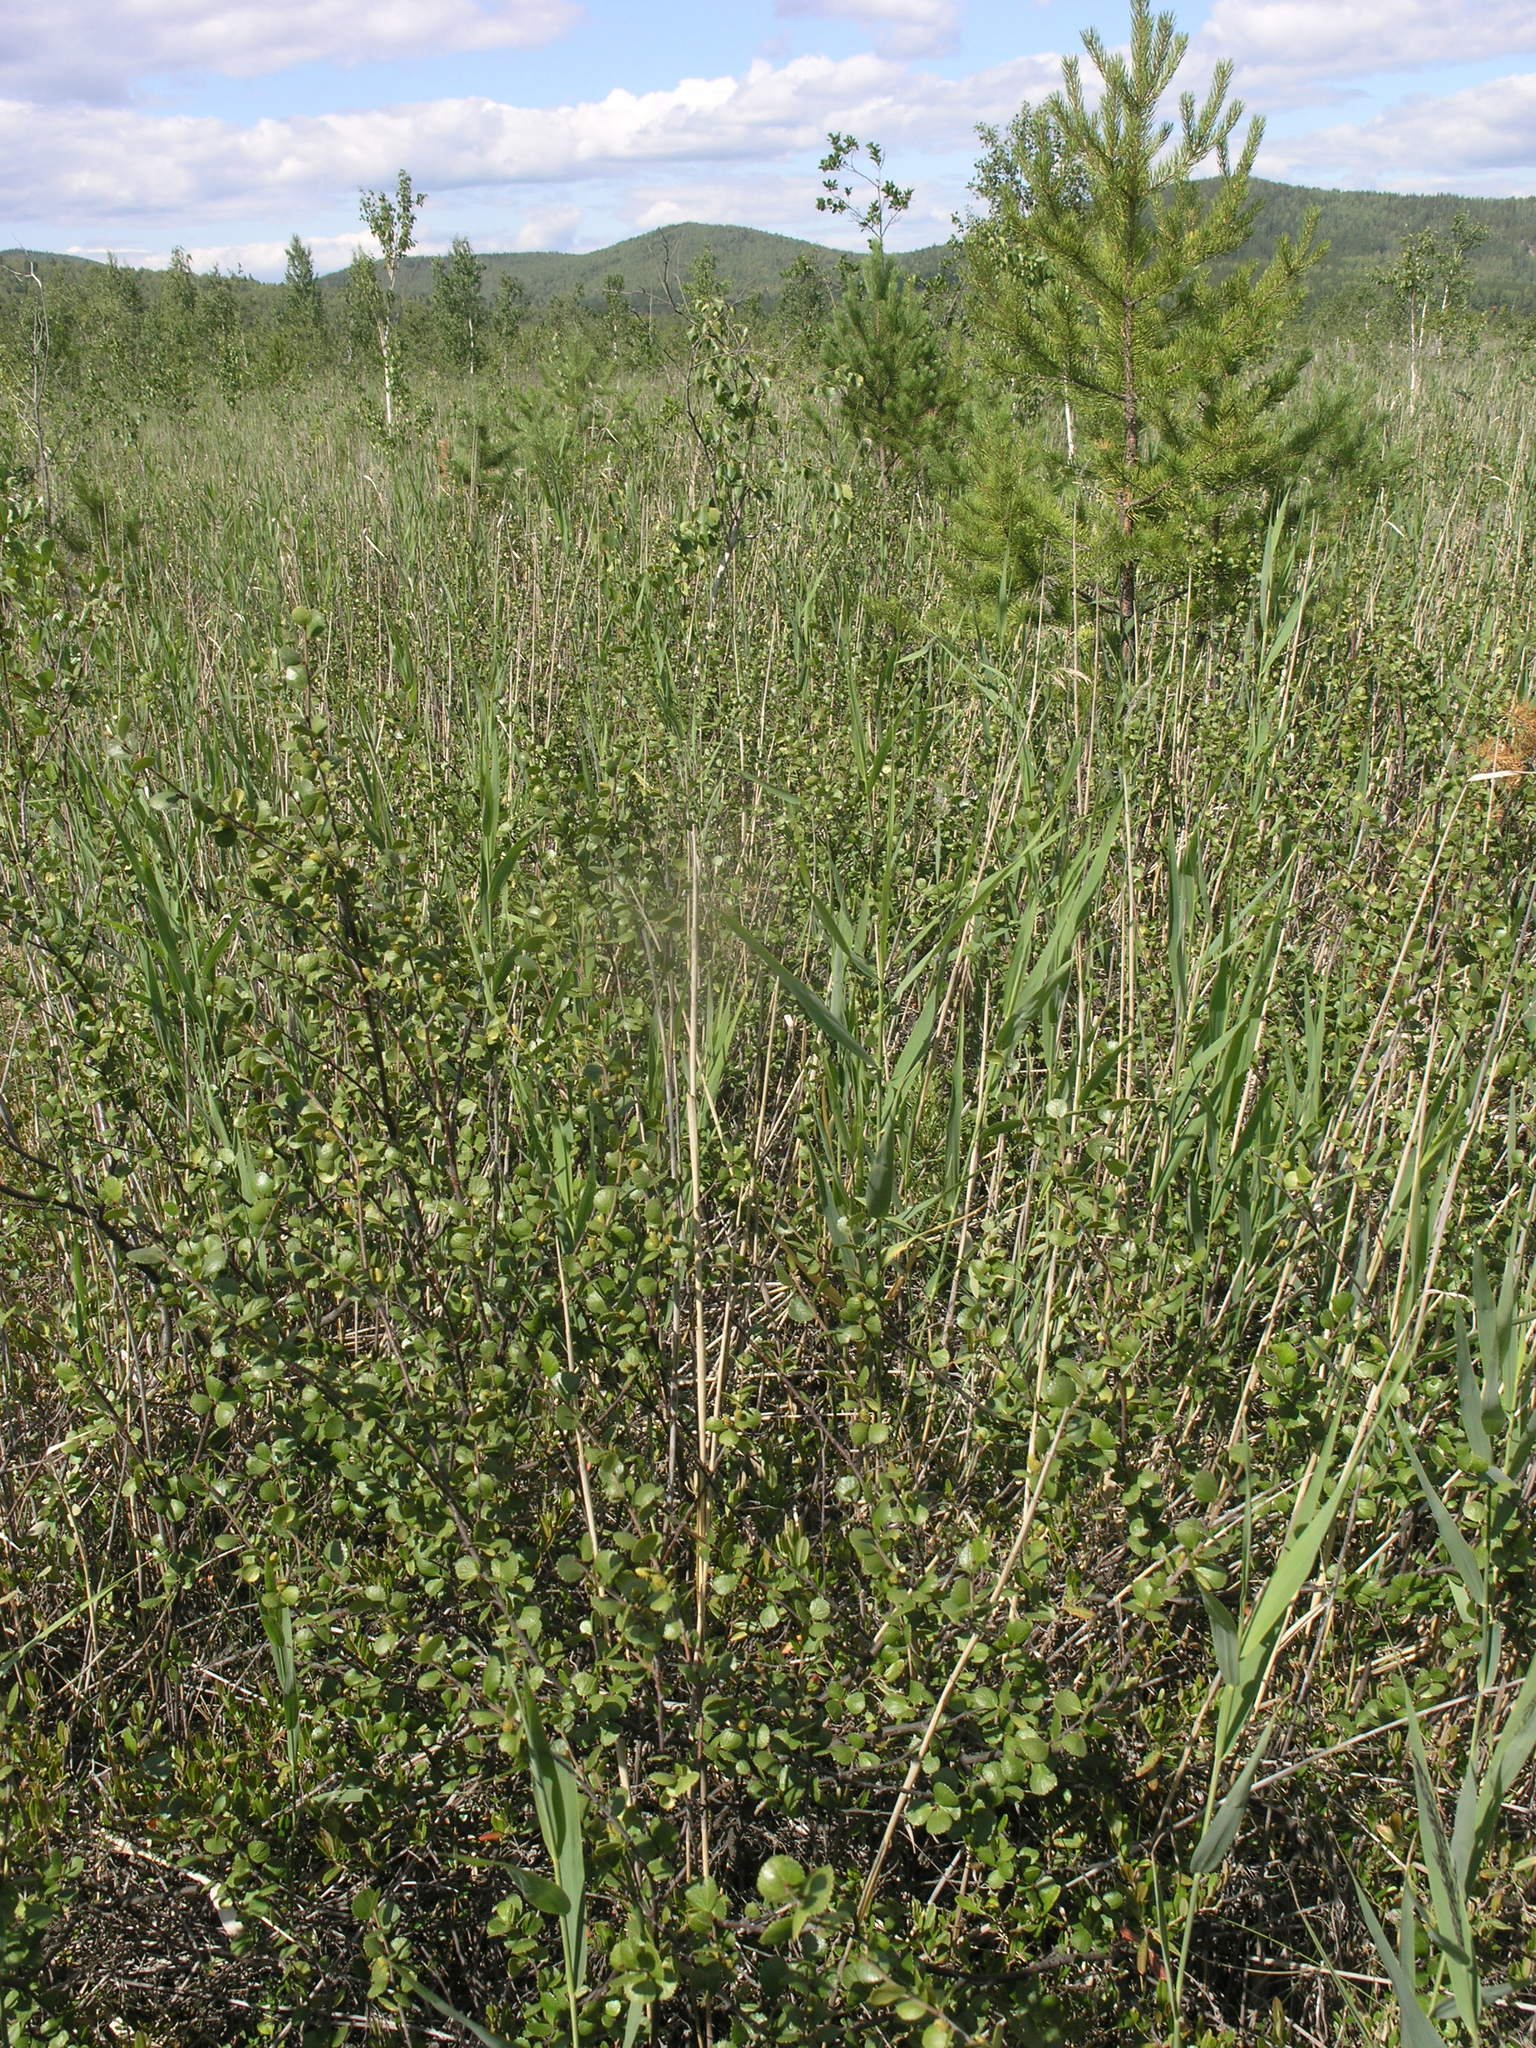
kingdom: Plantae
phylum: Tracheophyta
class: Magnoliopsida
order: Fagales
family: Betulaceae
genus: Betula
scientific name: Betula nana
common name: Arctic dwarf birch
